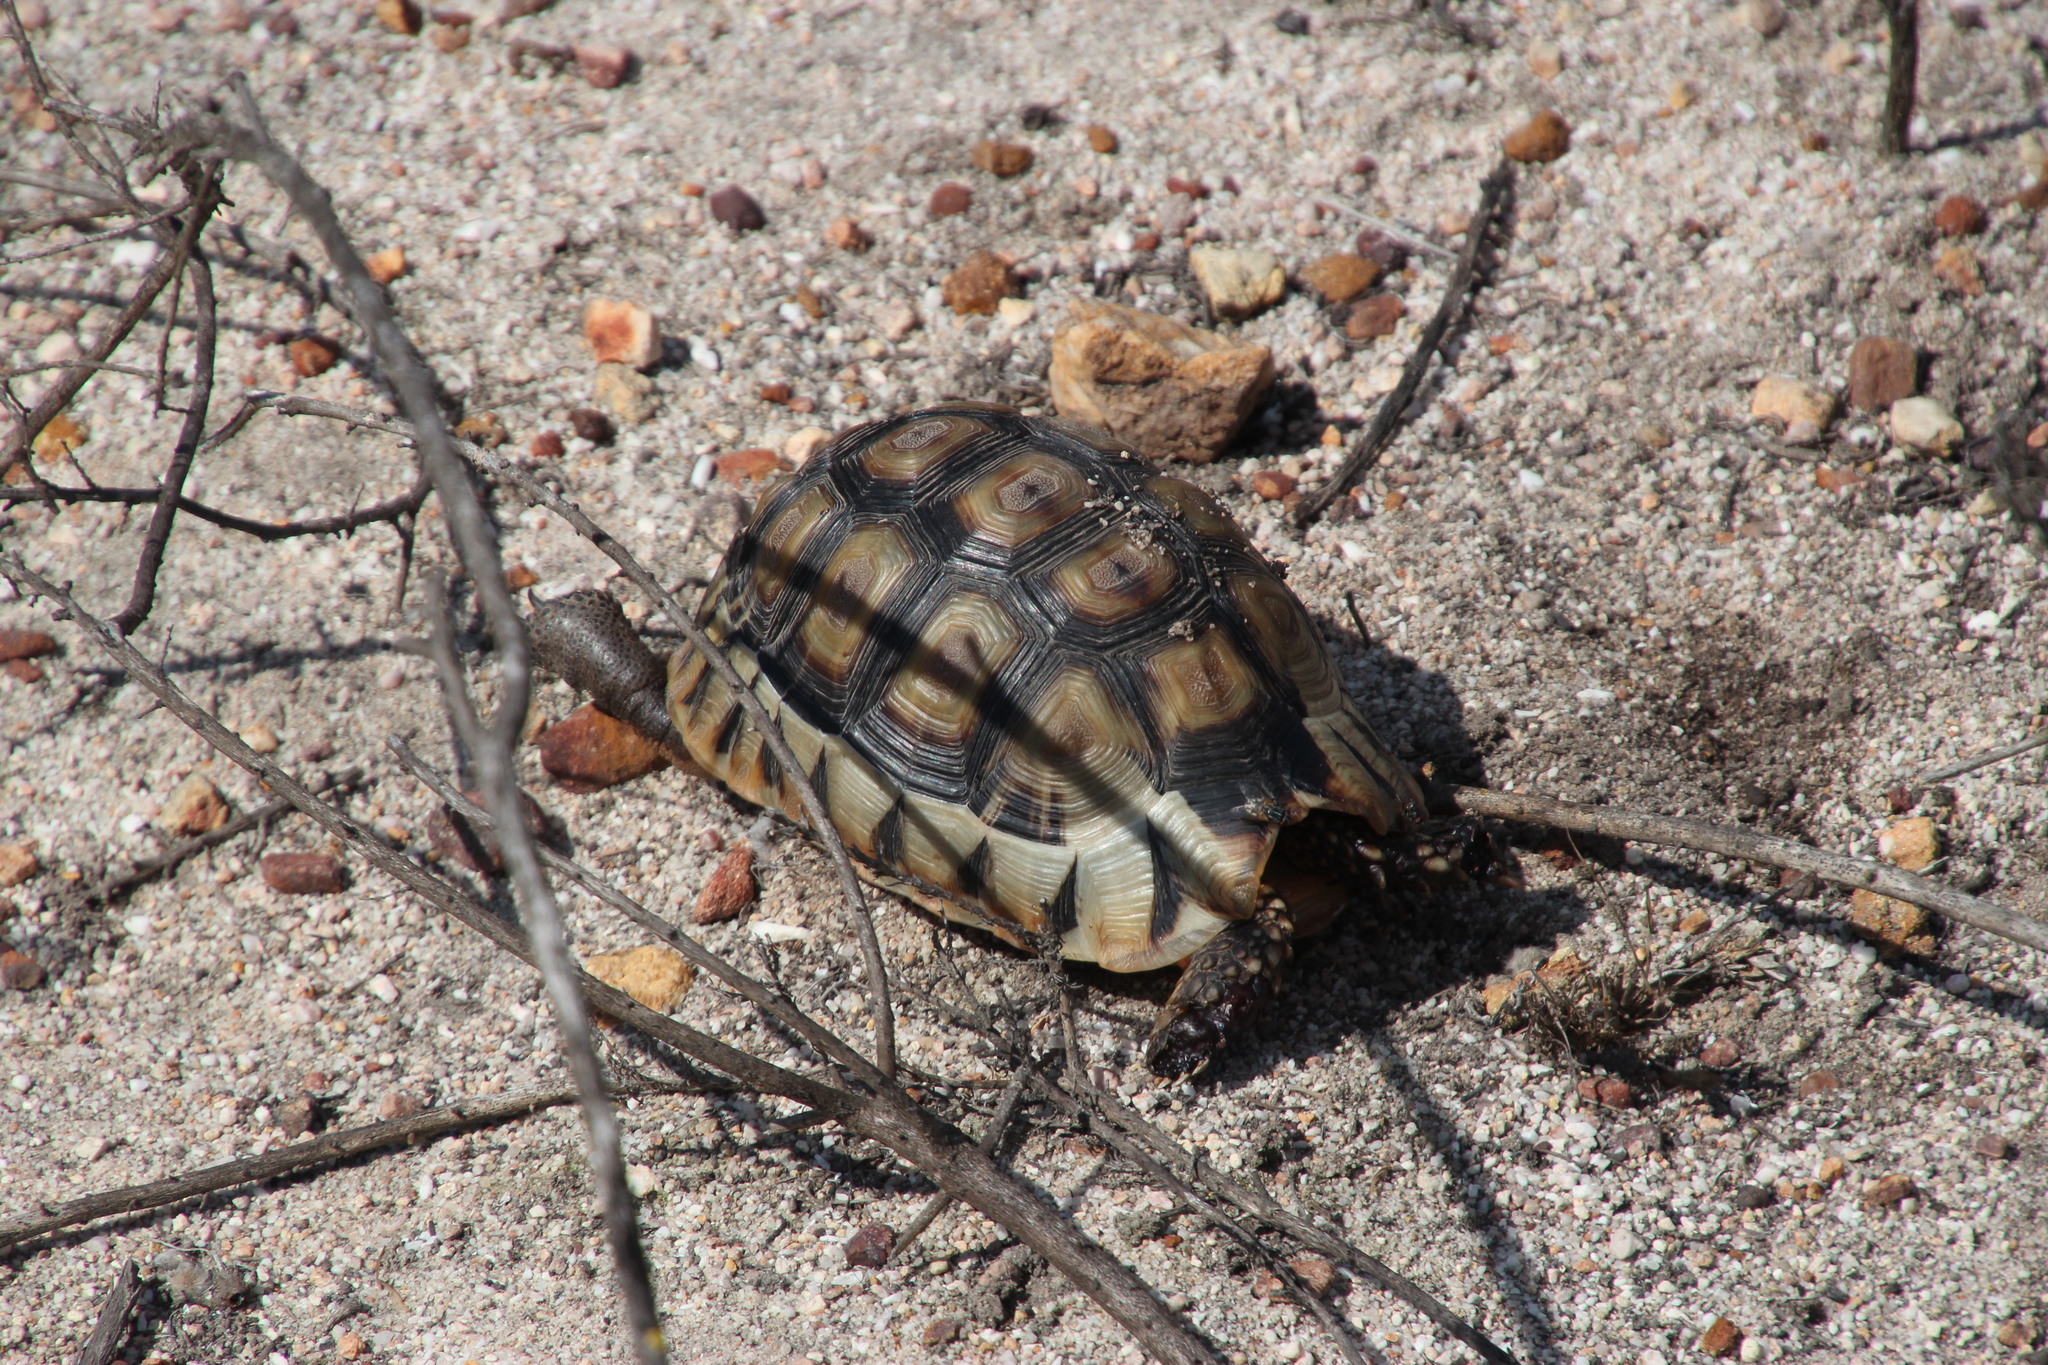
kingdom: Animalia
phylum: Chordata
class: Testudines
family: Testudinidae
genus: Chersina
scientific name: Chersina angulata
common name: South african bowsprit tortoise
